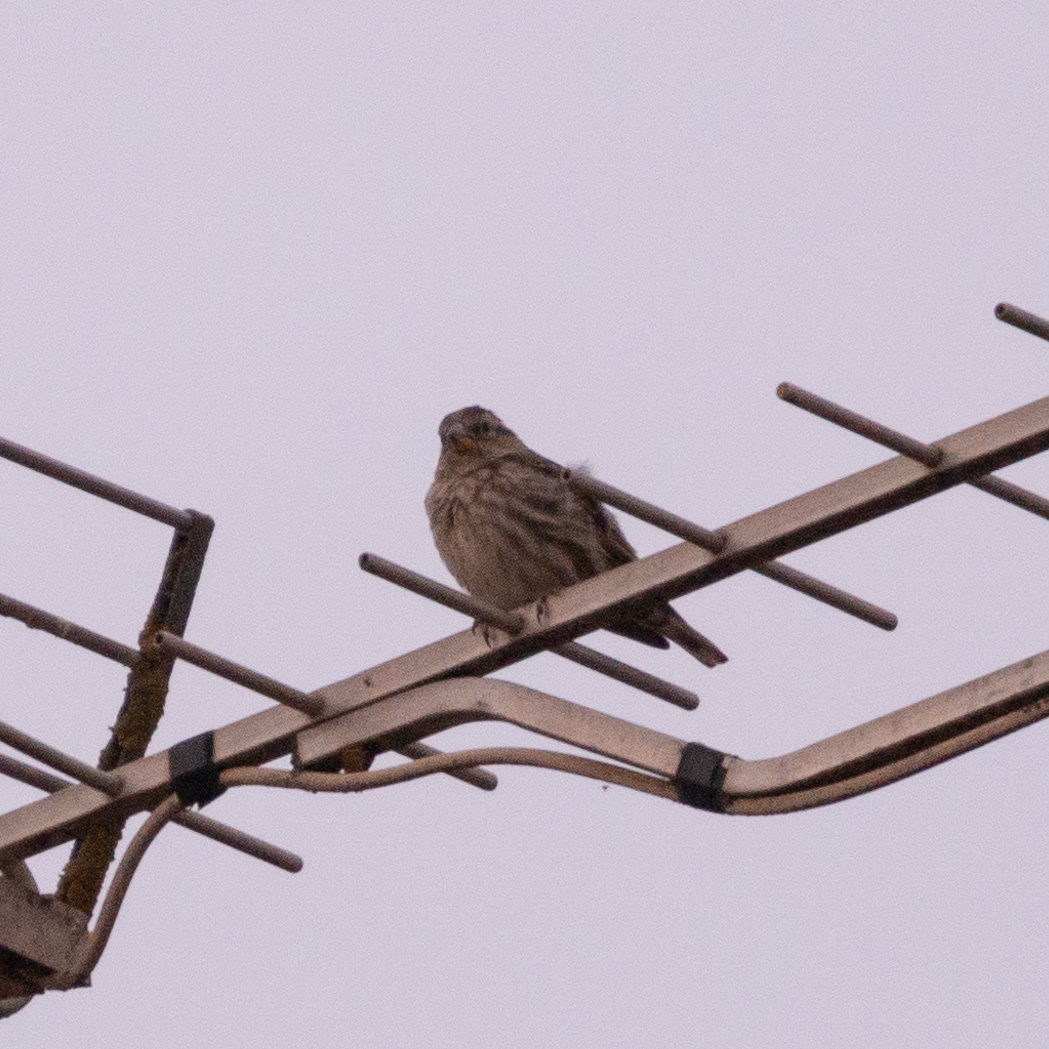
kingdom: Animalia
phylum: Chordata
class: Aves
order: Passeriformes
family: Passeridae
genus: Petronia
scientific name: Petronia petronia
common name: Rock sparrow
